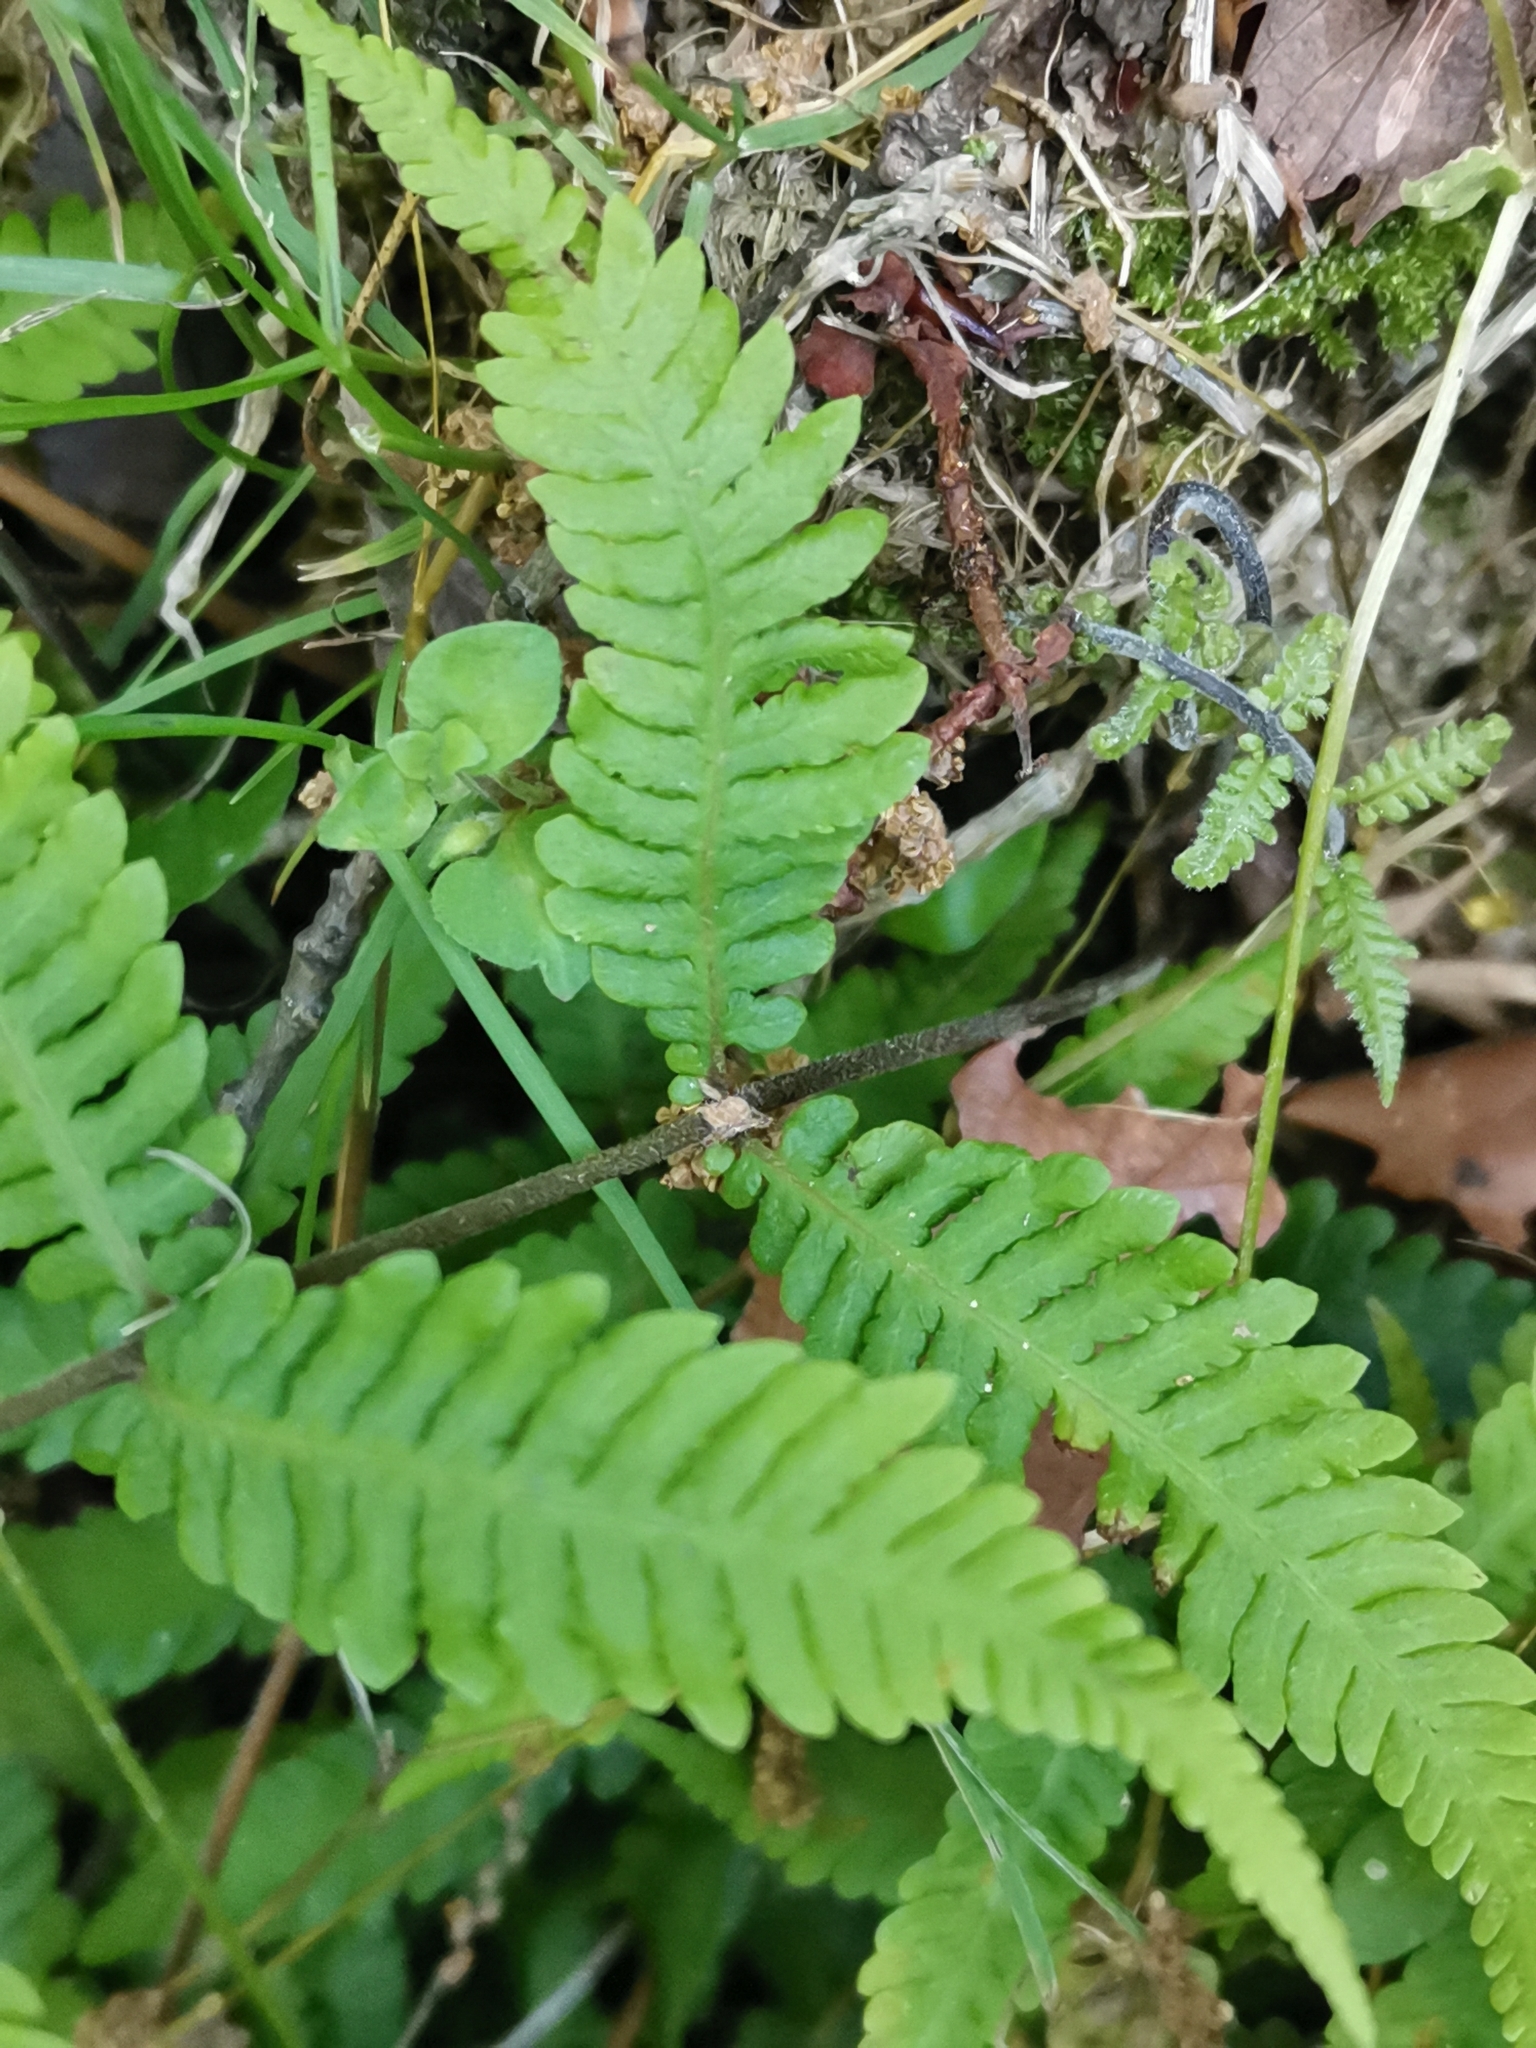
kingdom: Plantae
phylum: Tracheophyta
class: Polypodiopsida
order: Polypodiales
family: Thelypteridaceae
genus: Metathelypteris
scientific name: Metathelypteris laxa
